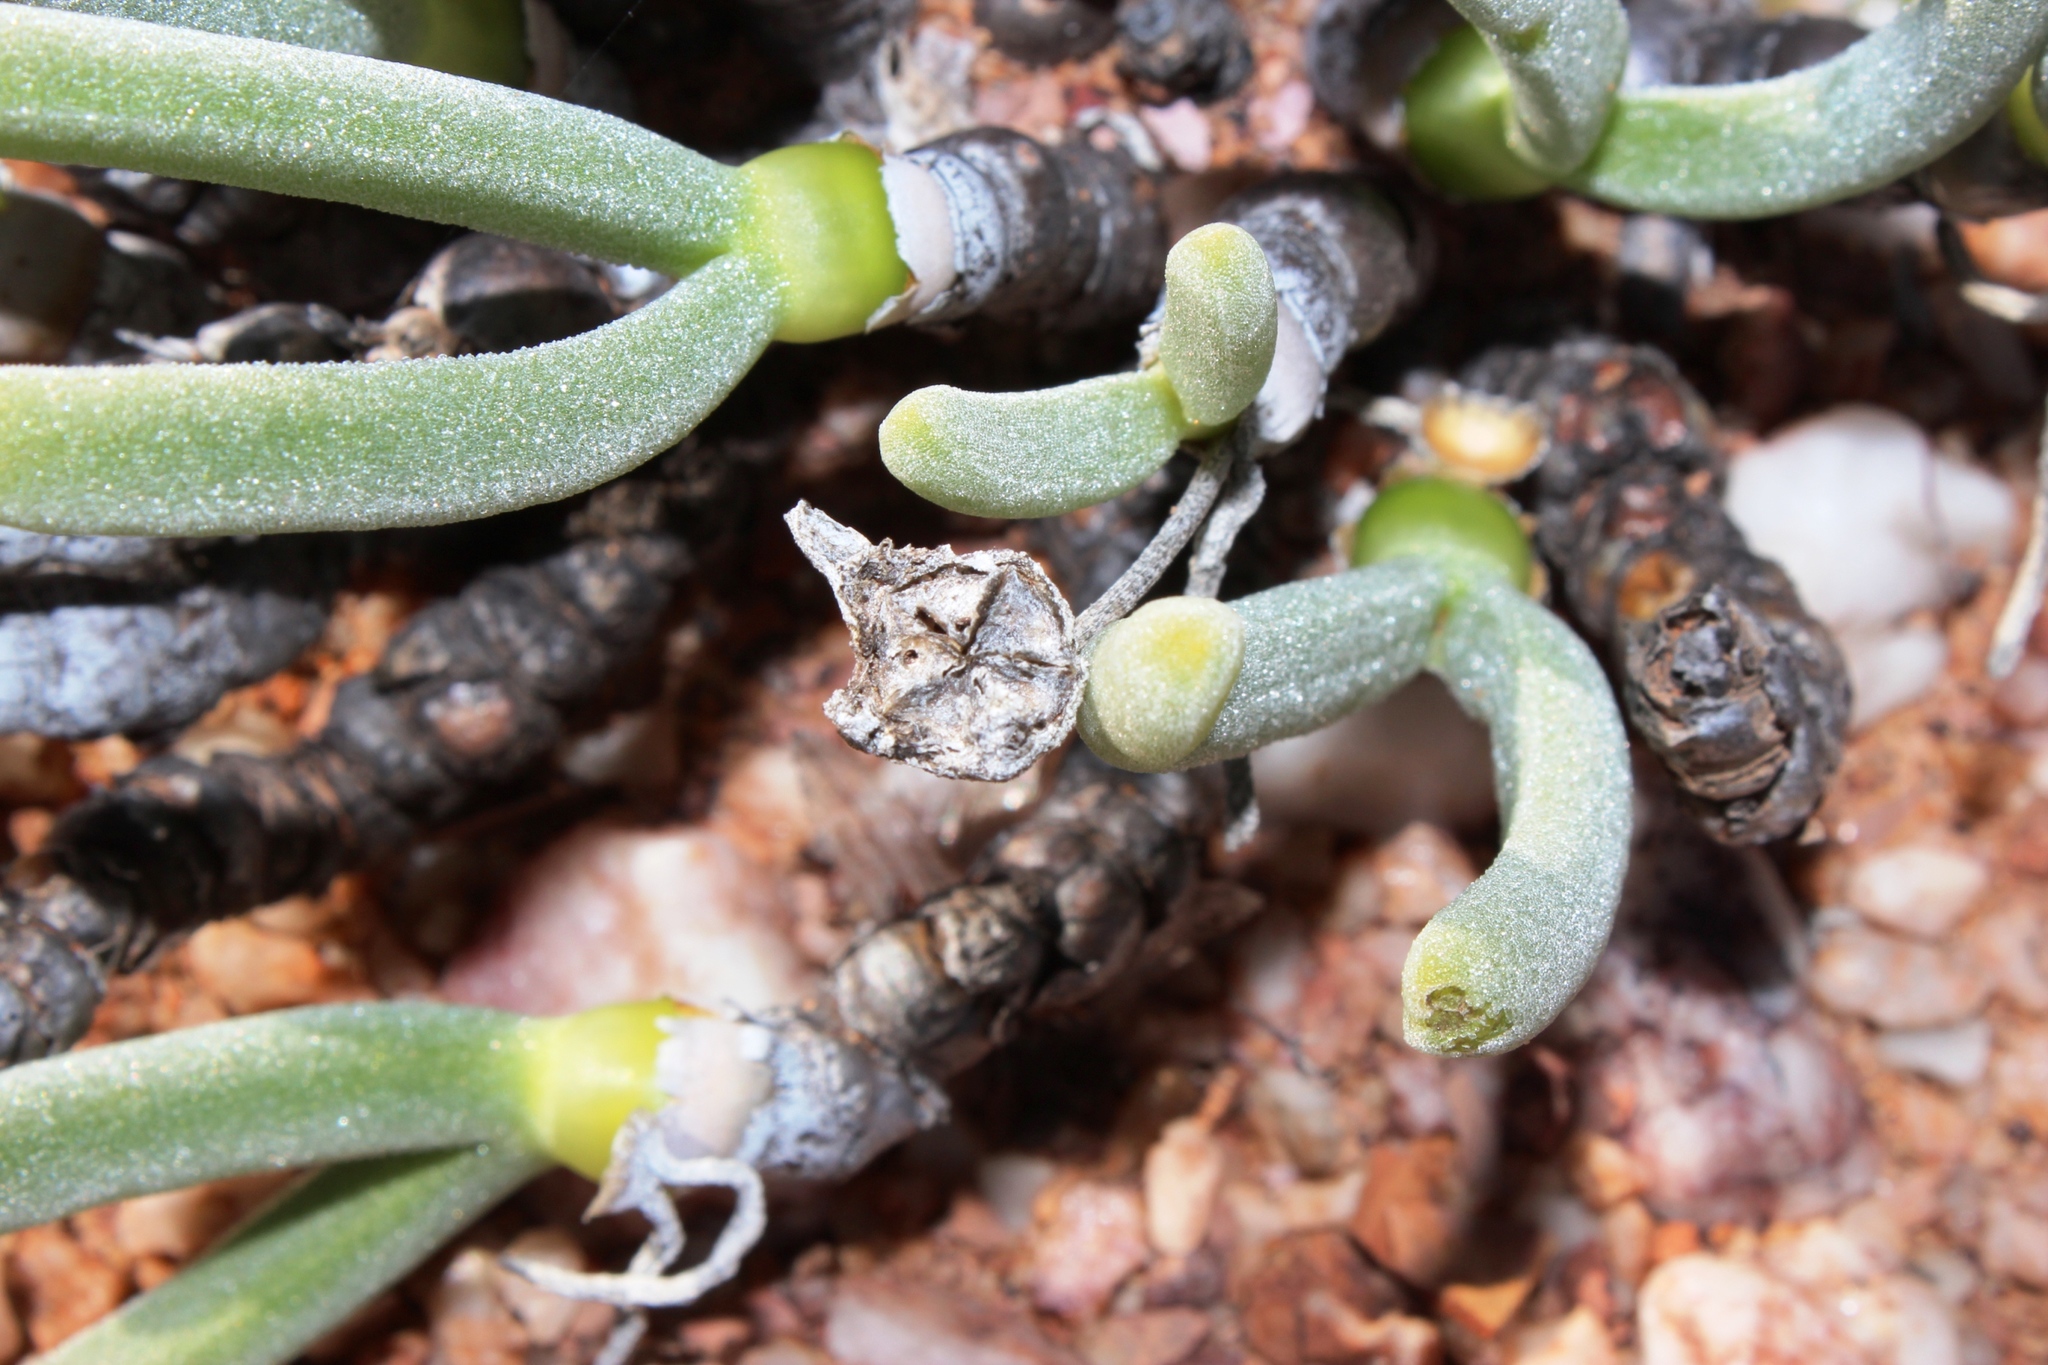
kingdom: Plantae
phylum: Tracheophyta
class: Magnoliopsida
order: Caryophyllales
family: Aizoaceae
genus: Dracophilus
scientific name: Dracophilus Monilaria pisiformis
